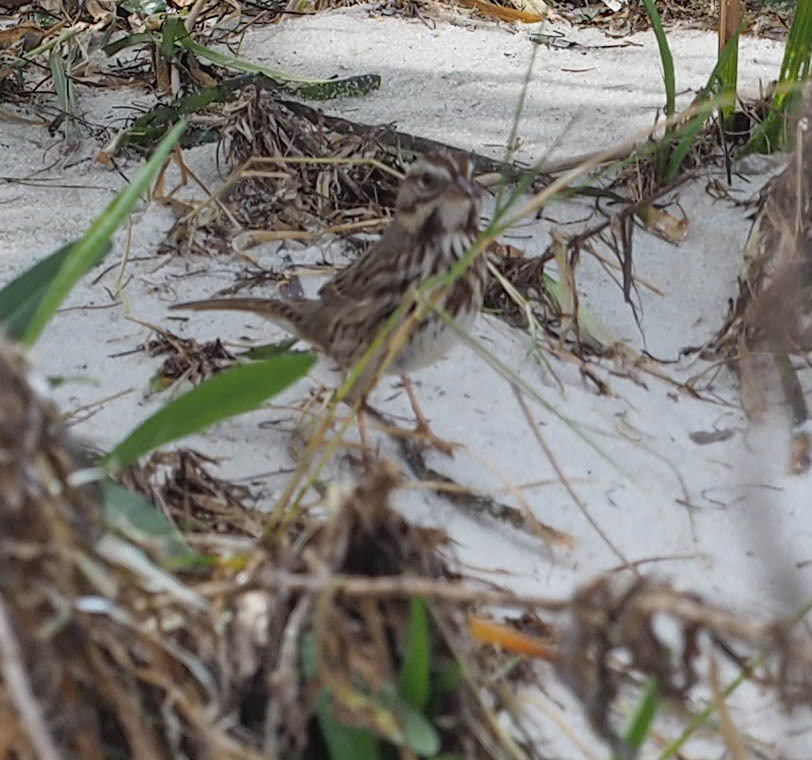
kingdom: Animalia
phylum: Chordata
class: Aves
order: Passeriformes
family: Passerellidae
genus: Melospiza
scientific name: Melospiza melodia
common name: Song sparrow
